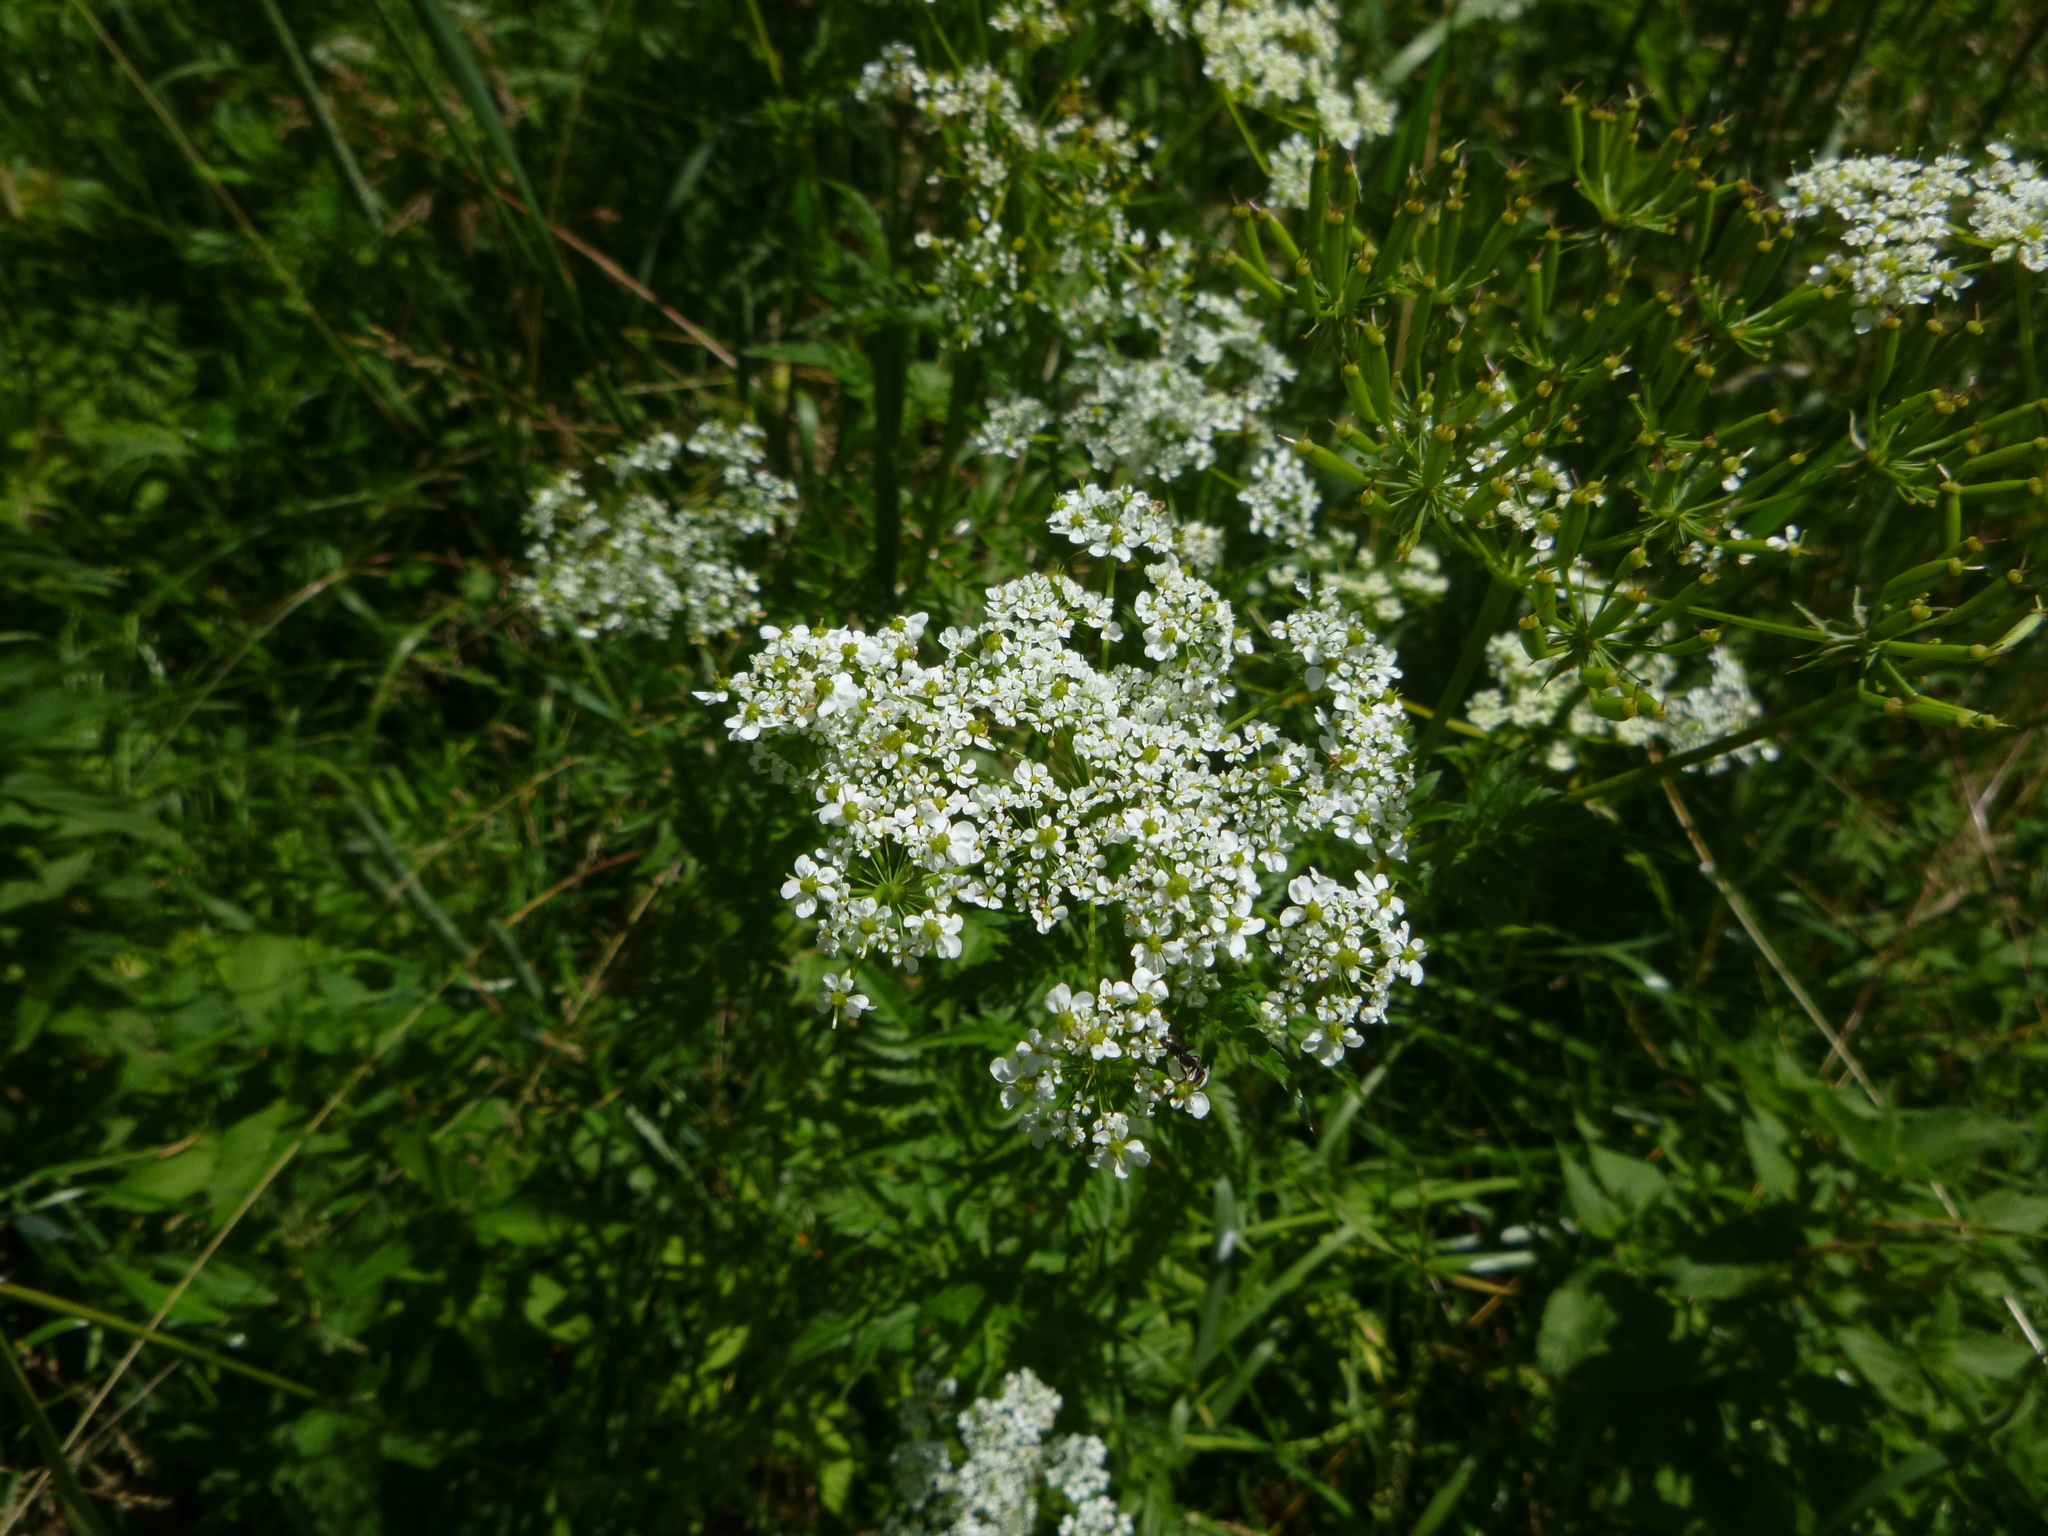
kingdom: Plantae
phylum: Tracheophyta
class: Magnoliopsida
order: Apiales
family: Apiaceae
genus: Chaerophyllum
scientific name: Chaerophyllum aureum
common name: Golden chervil
